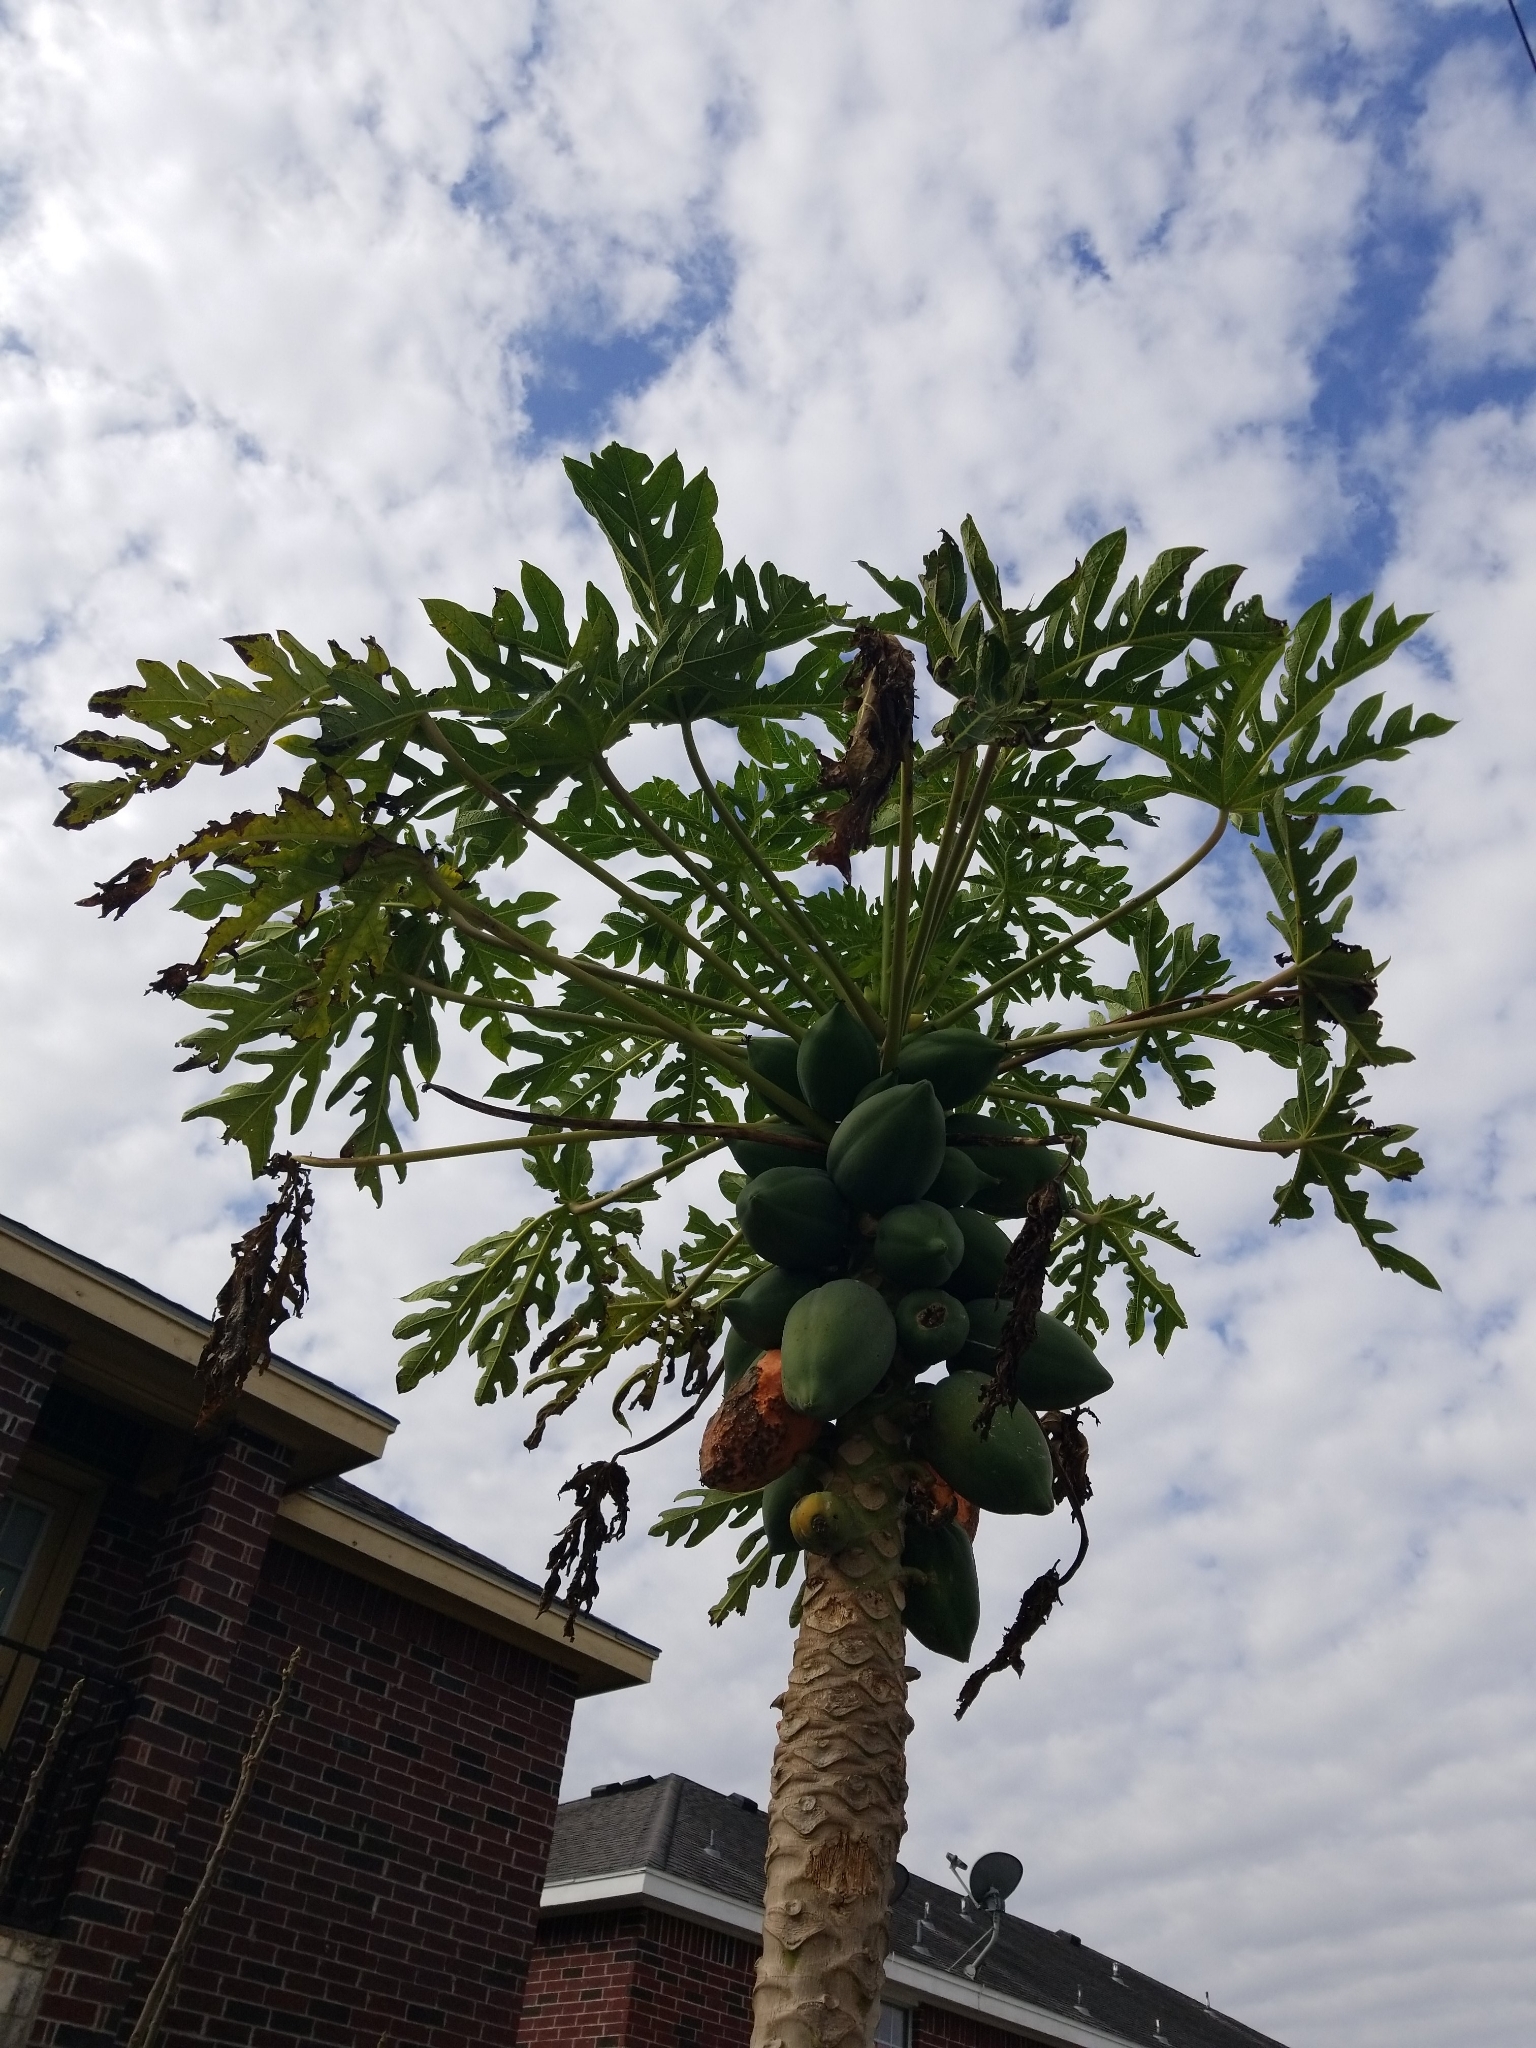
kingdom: Plantae
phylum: Tracheophyta
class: Magnoliopsida
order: Brassicales
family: Caricaceae
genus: Carica
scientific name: Carica papaya
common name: Papaya
